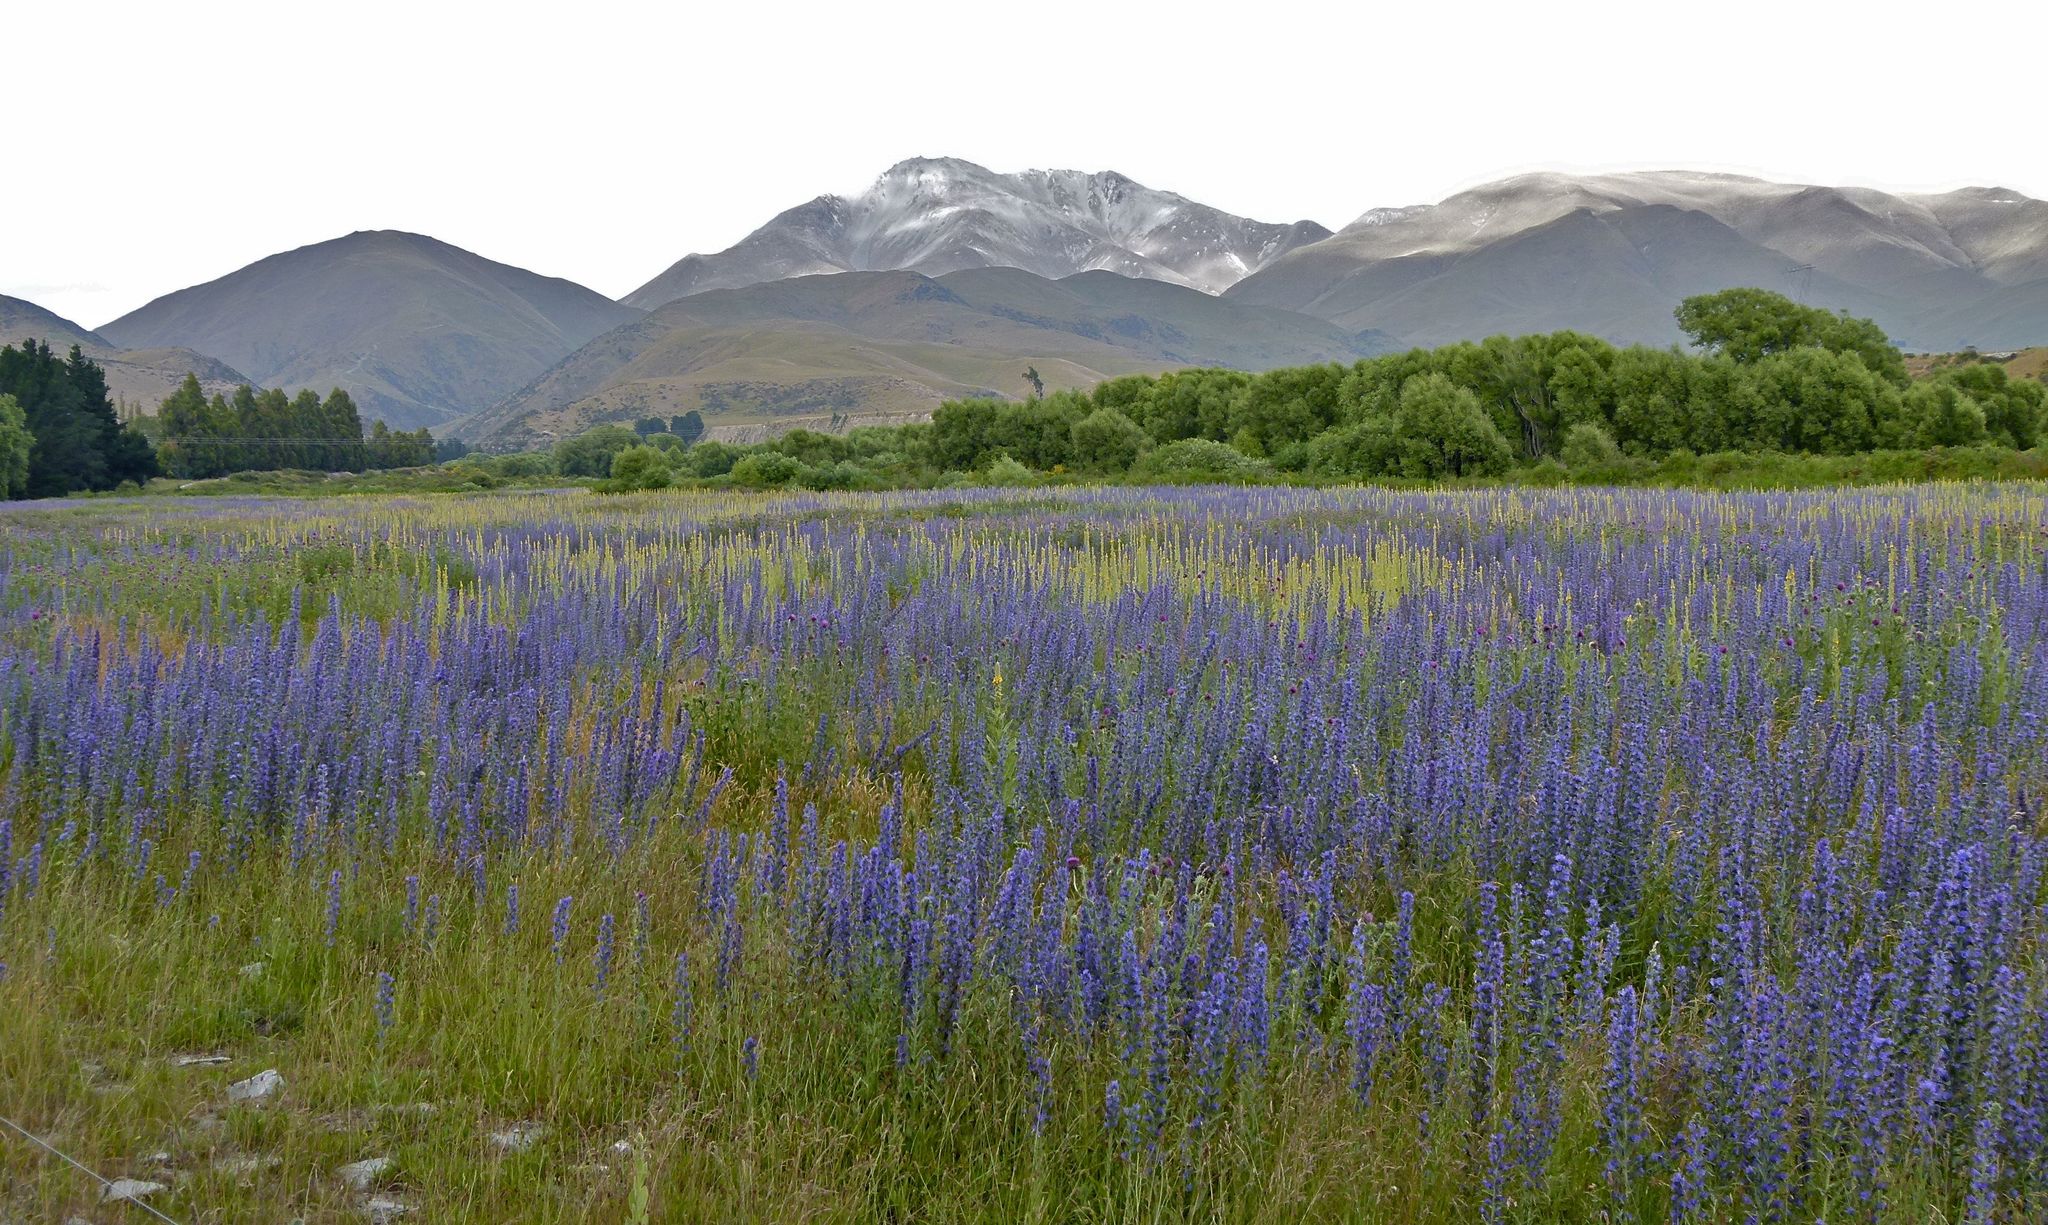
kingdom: Plantae
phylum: Tracheophyta
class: Magnoliopsida
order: Boraginales
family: Boraginaceae
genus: Echium
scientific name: Echium vulgare
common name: Common viper's bugloss
